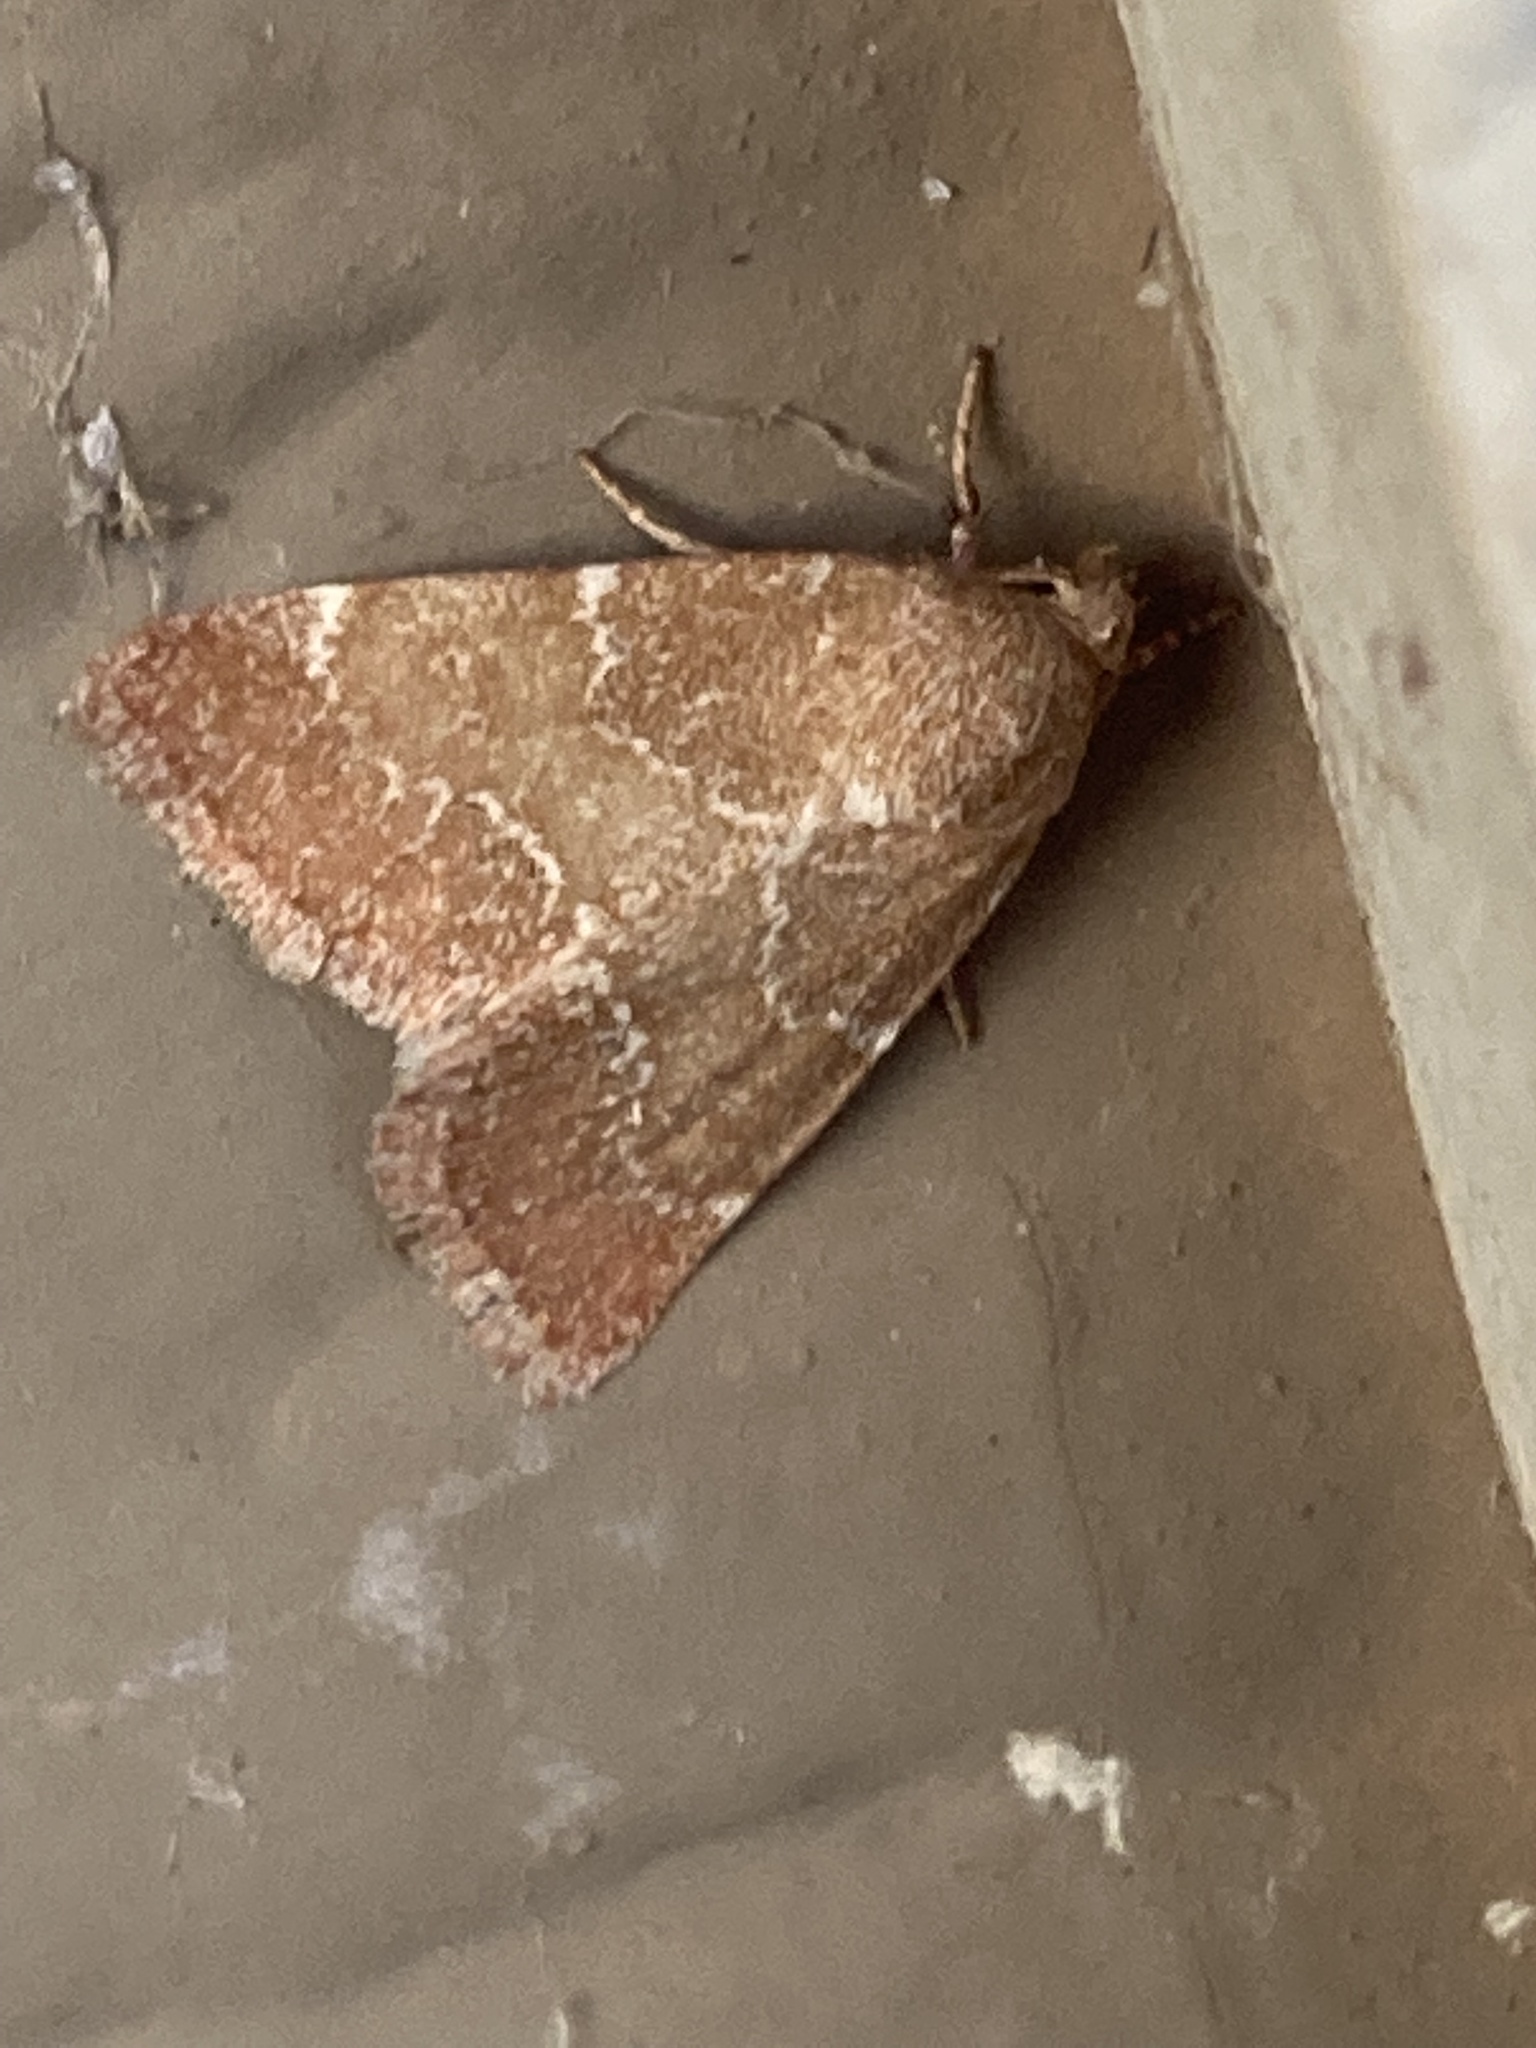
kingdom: Animalia
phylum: Arthropoda
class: Insecta
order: Lepidoptera
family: Noctuidae
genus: Schinia
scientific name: Schinia saturata
